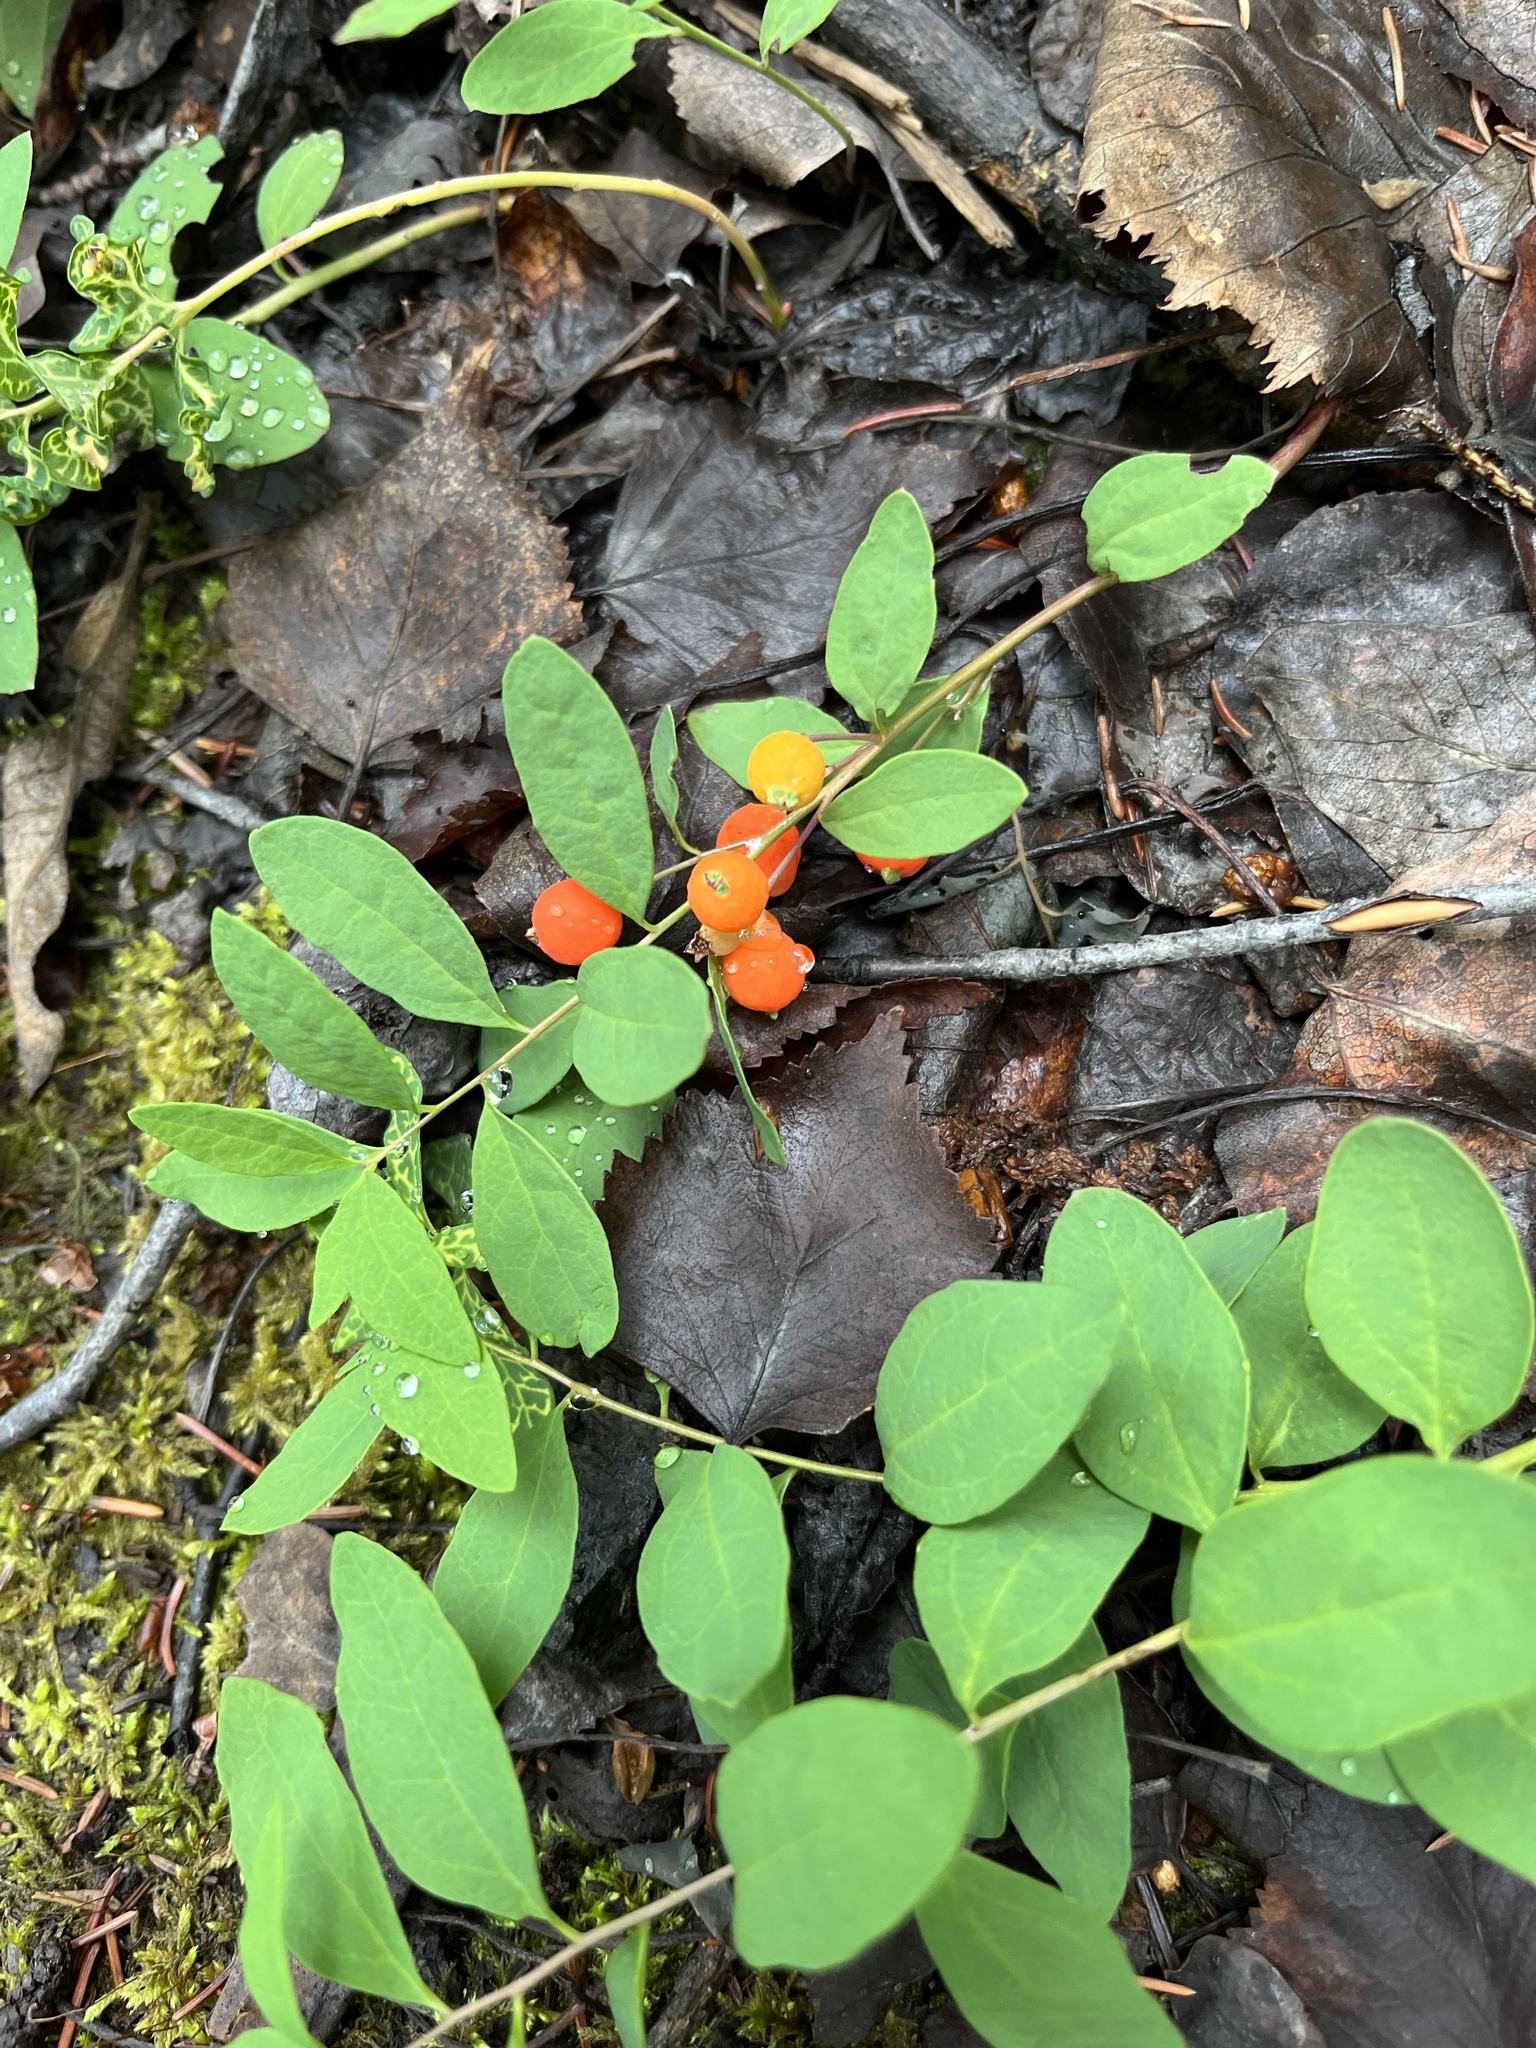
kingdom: Plantae
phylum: Tracheophyta
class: Magnoliopsida
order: Santalales
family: Comandraceae
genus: Geocaulon
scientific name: Geocaulon lividum
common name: Earthberry
